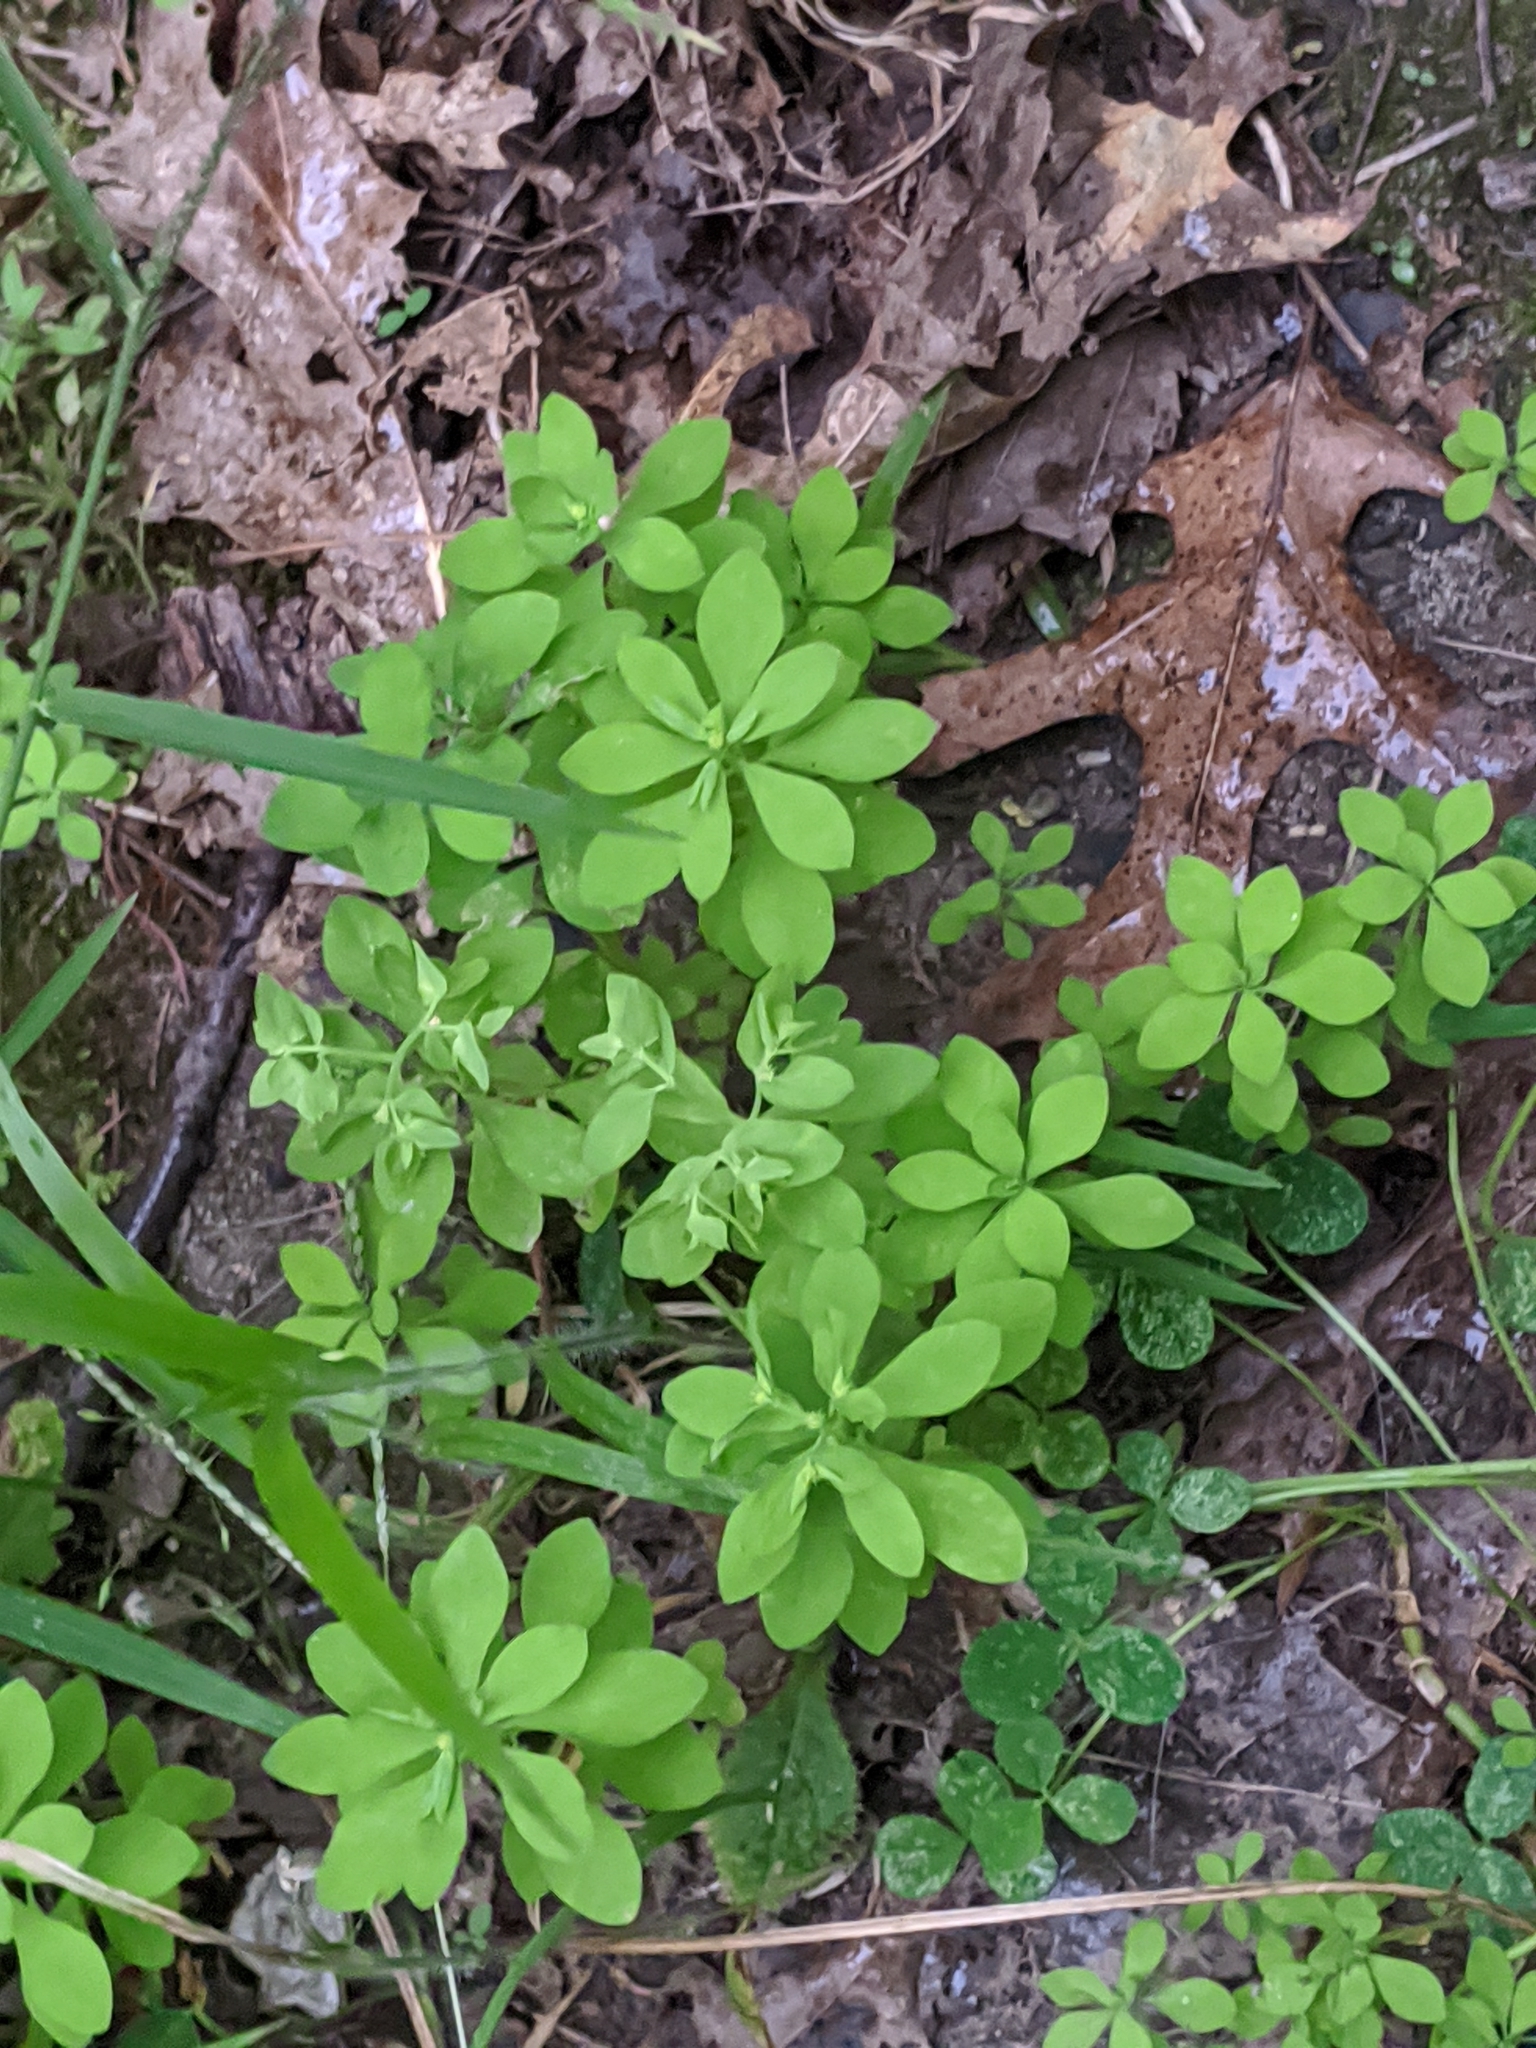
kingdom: Plantae
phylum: Tracheophyta
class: Magnoliopsida
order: Malpighiales
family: Euphorbiaceae
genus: Euphorbia
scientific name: Euphorbia peplus
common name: Petty spurge
